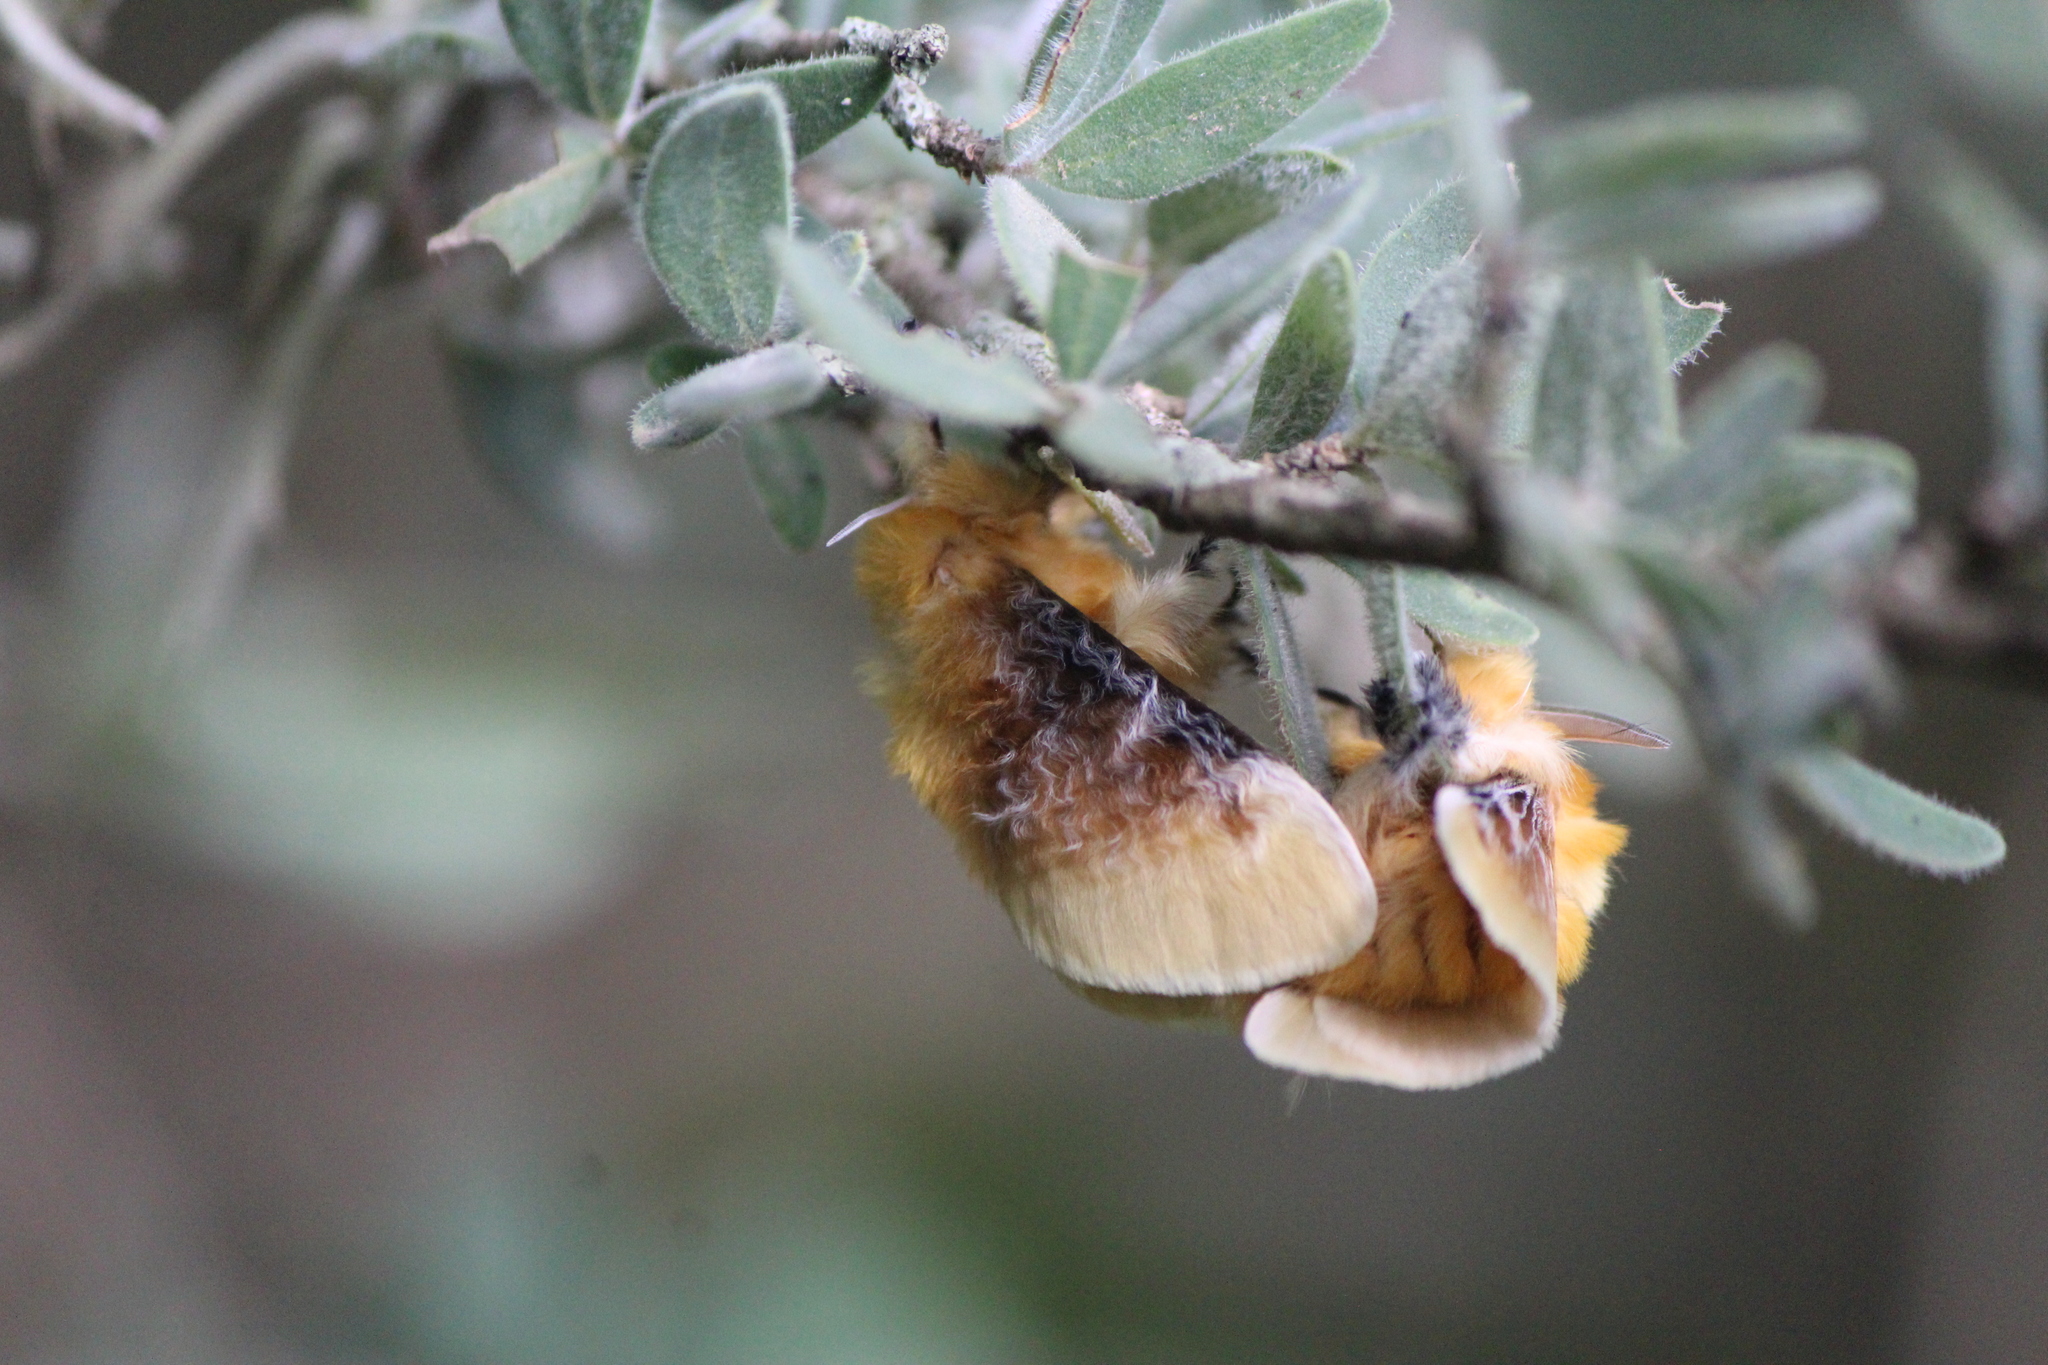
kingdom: Animalia
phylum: Arthropoda
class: Insecta
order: Lepidoptera
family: Megalopygidae
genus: Megalopyge
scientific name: Megalopyge opercularis
